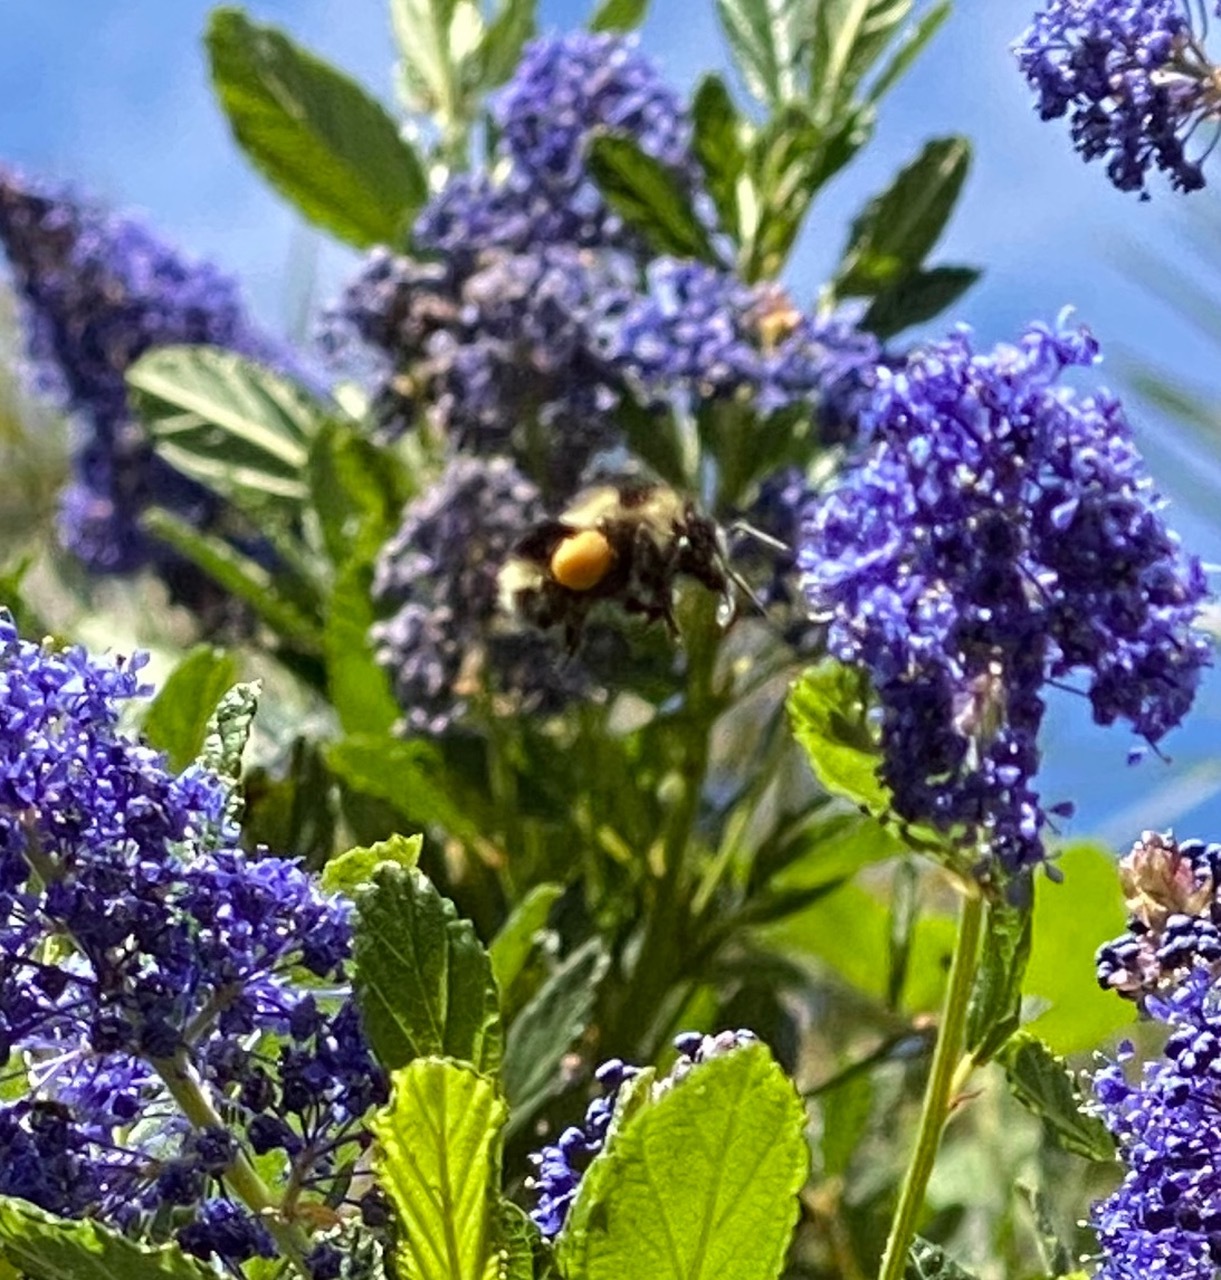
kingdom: Animalia
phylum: Arthropoda
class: Insecta
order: Hymenoptera
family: Apidae
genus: Bombus
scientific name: Bombus melanopygus
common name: Black tail bumble bee
